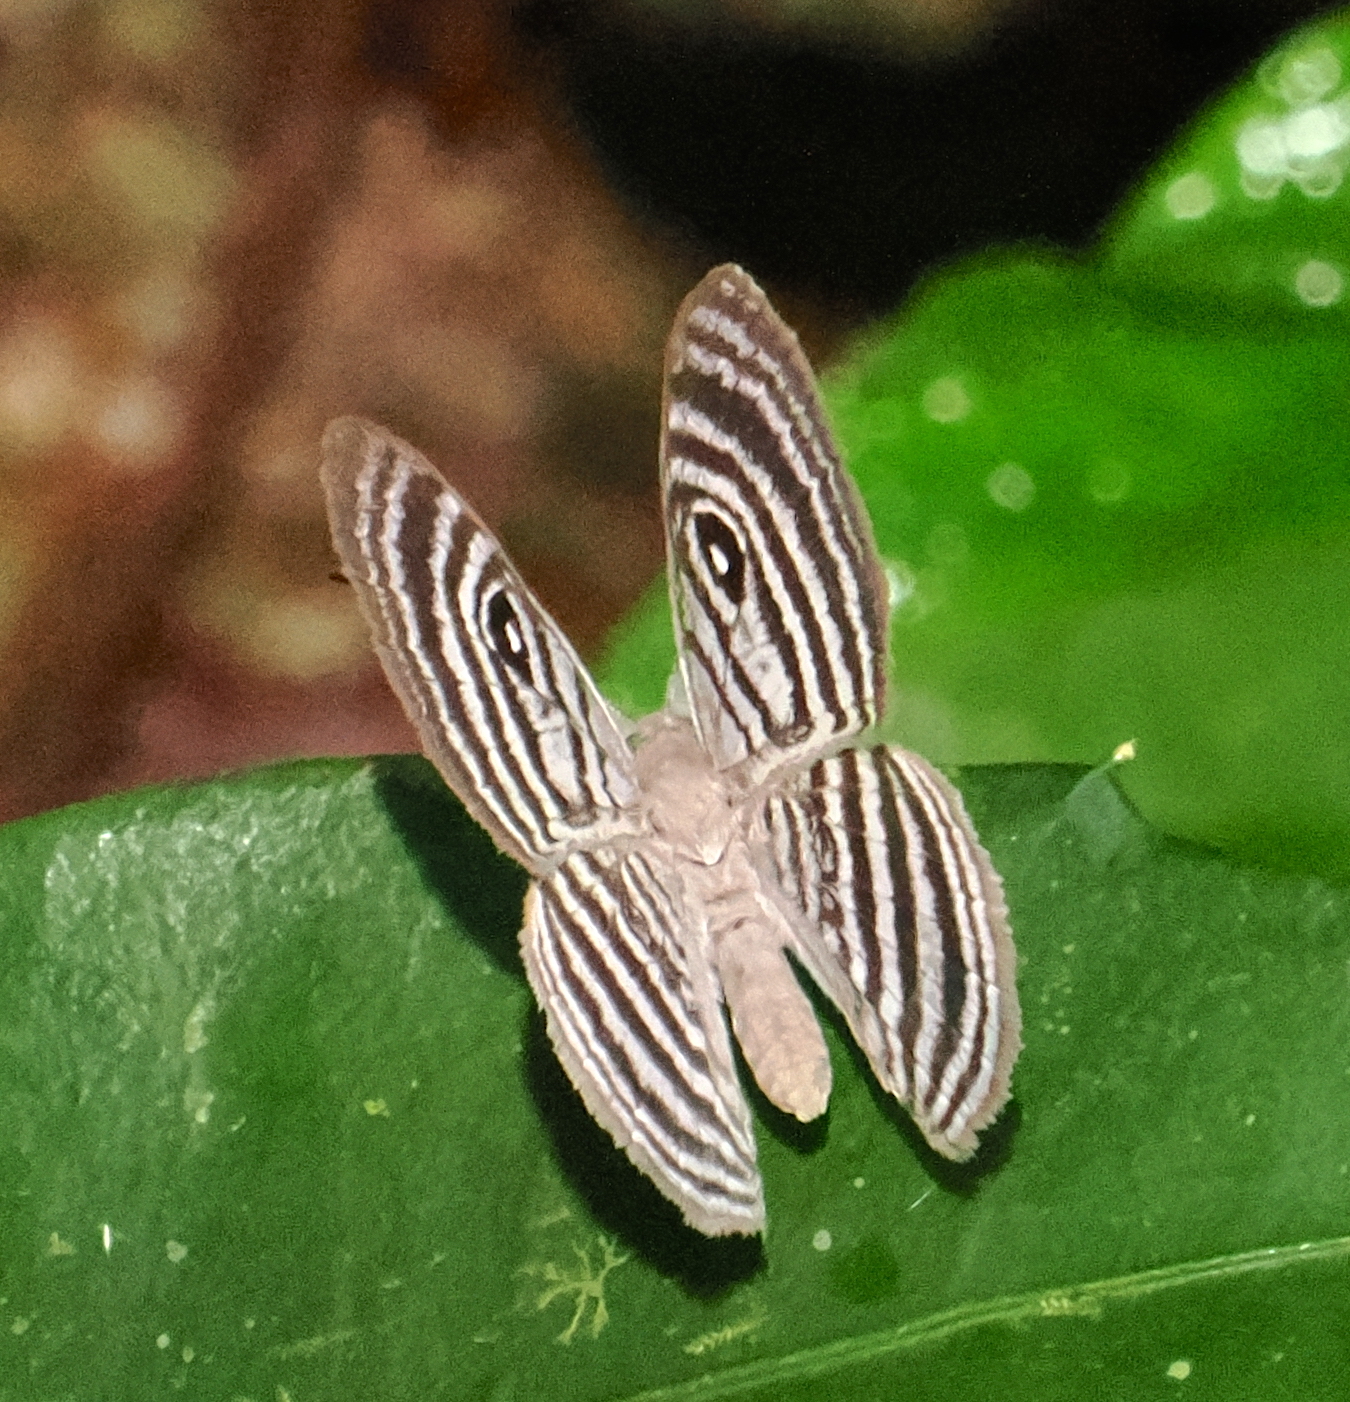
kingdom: Animalia
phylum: Arthropoda
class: Insecta
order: Lepidoptera
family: Riodinidae
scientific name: Riodinidae
